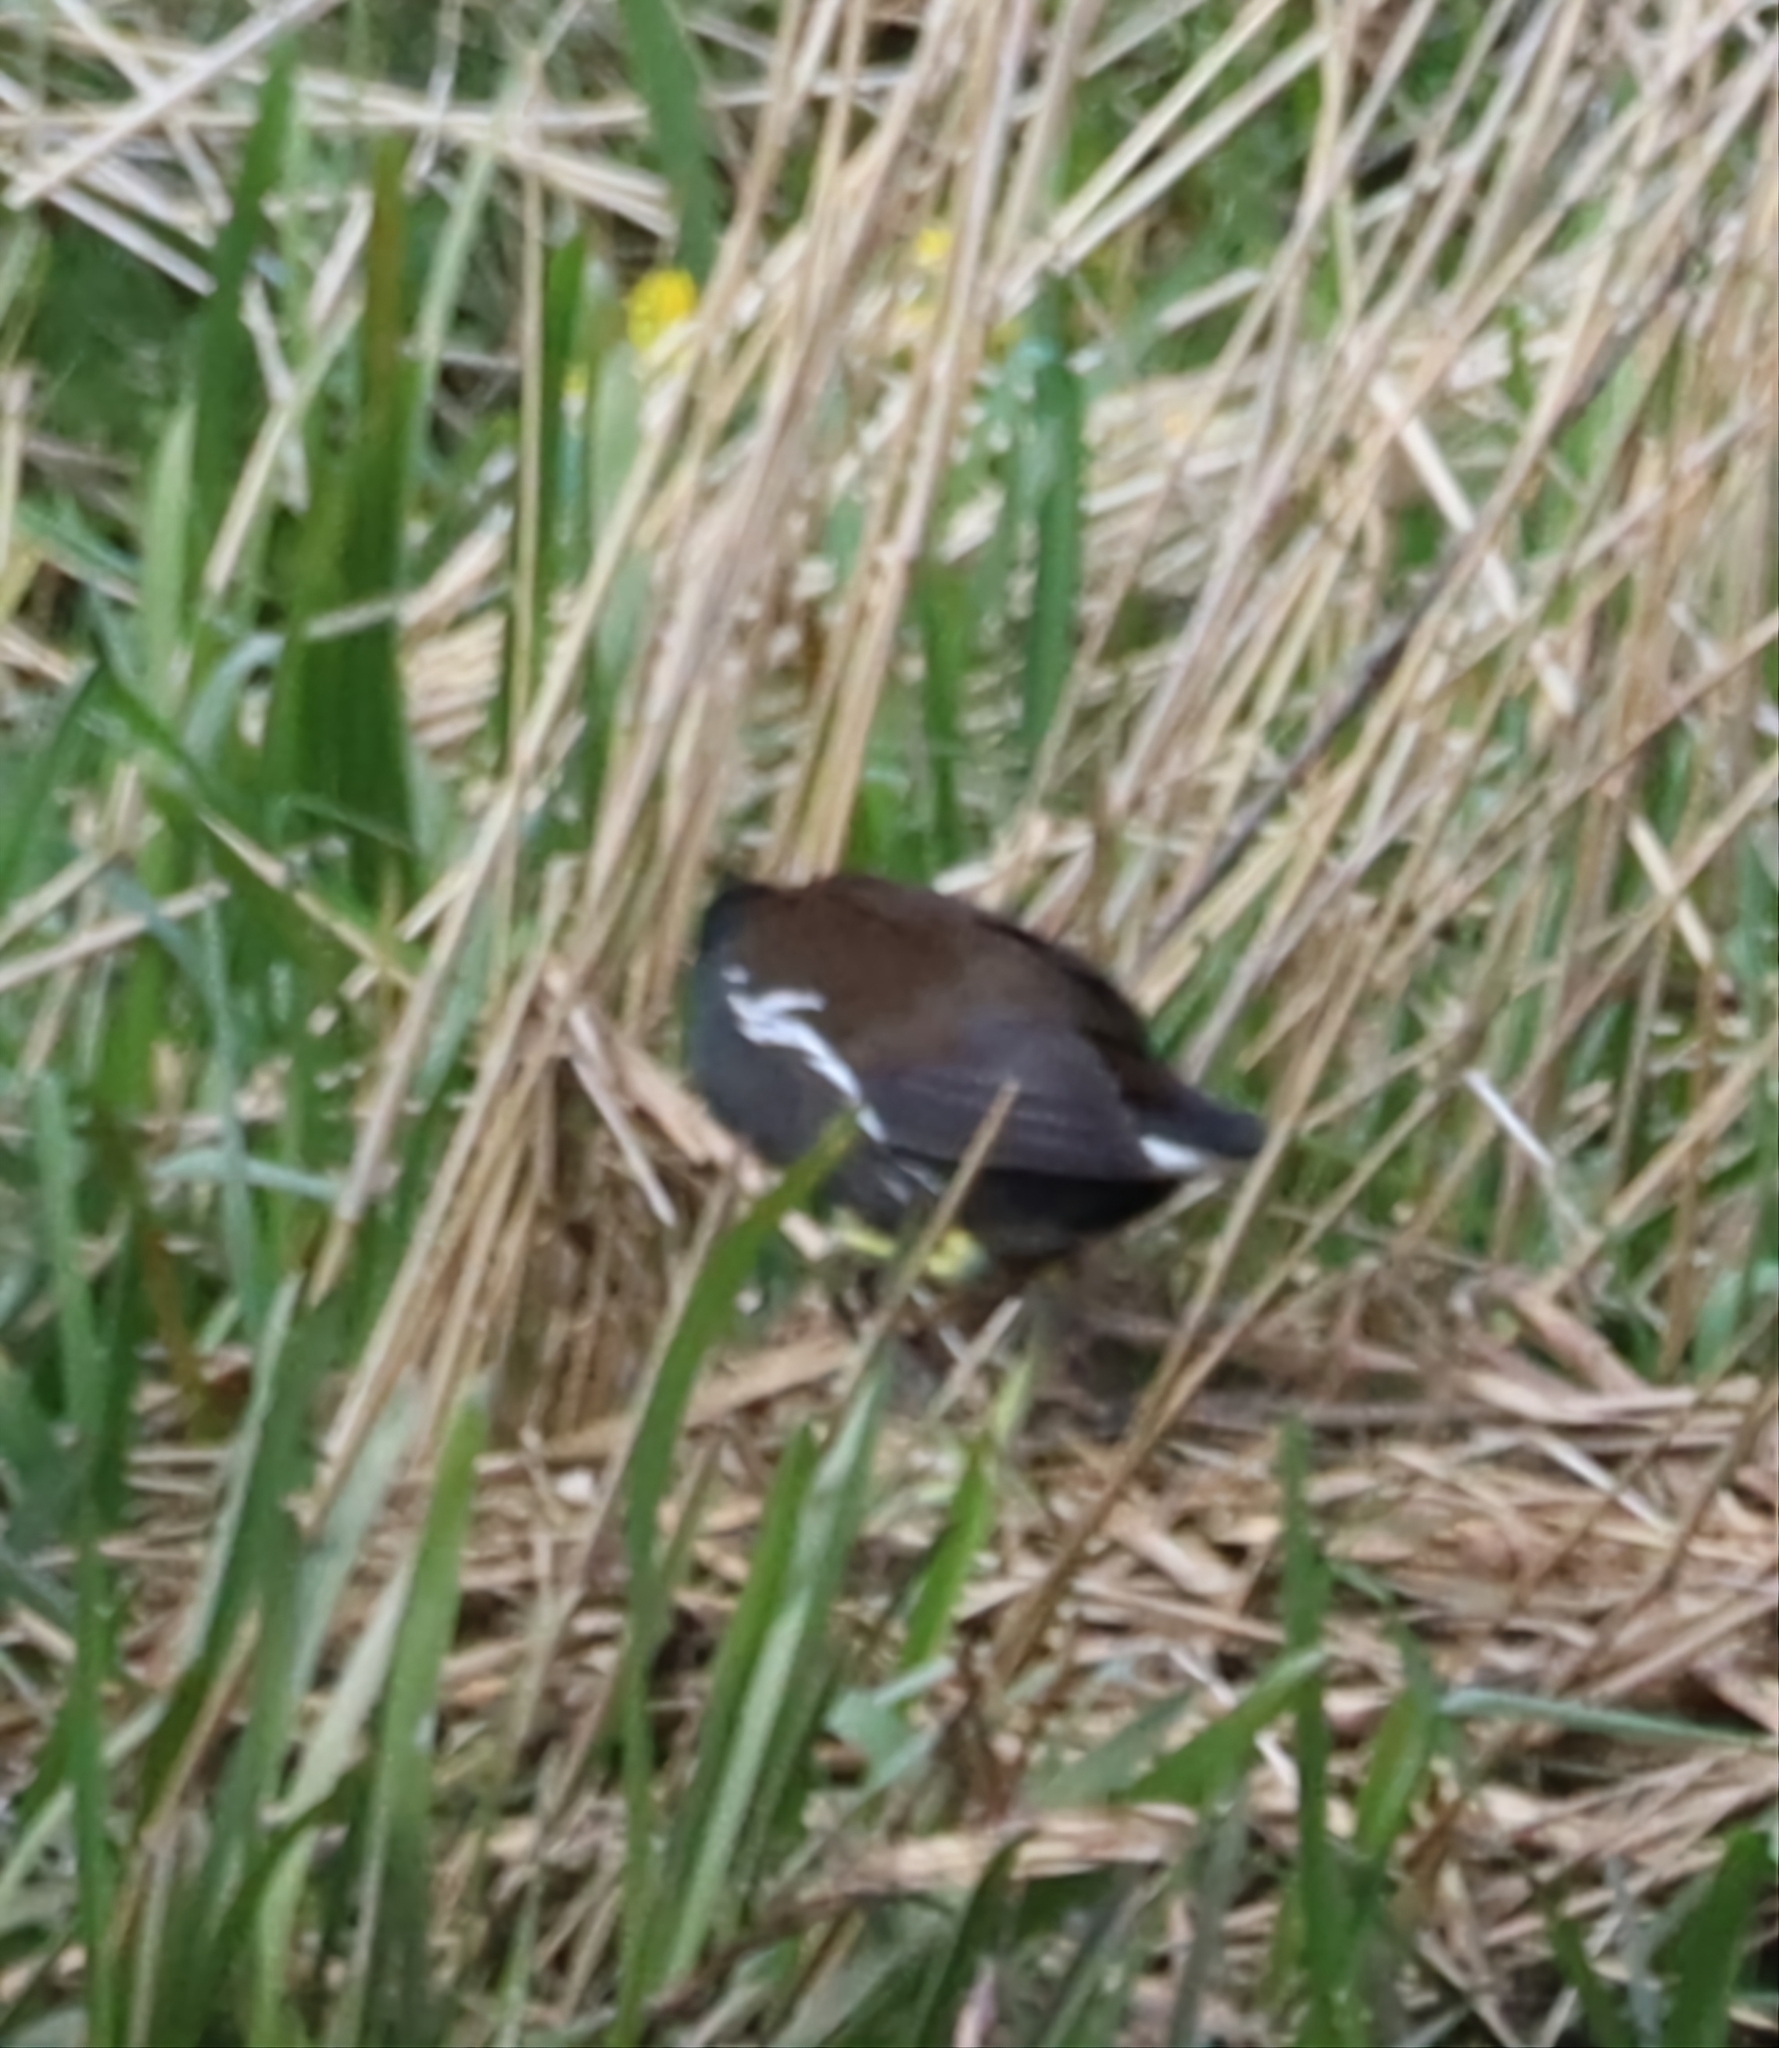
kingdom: Animalia
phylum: Chordata
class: Aves
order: Gruiformes
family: Rallidae
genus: Gallinula
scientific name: Gallinula chloropus
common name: Common moorhen
